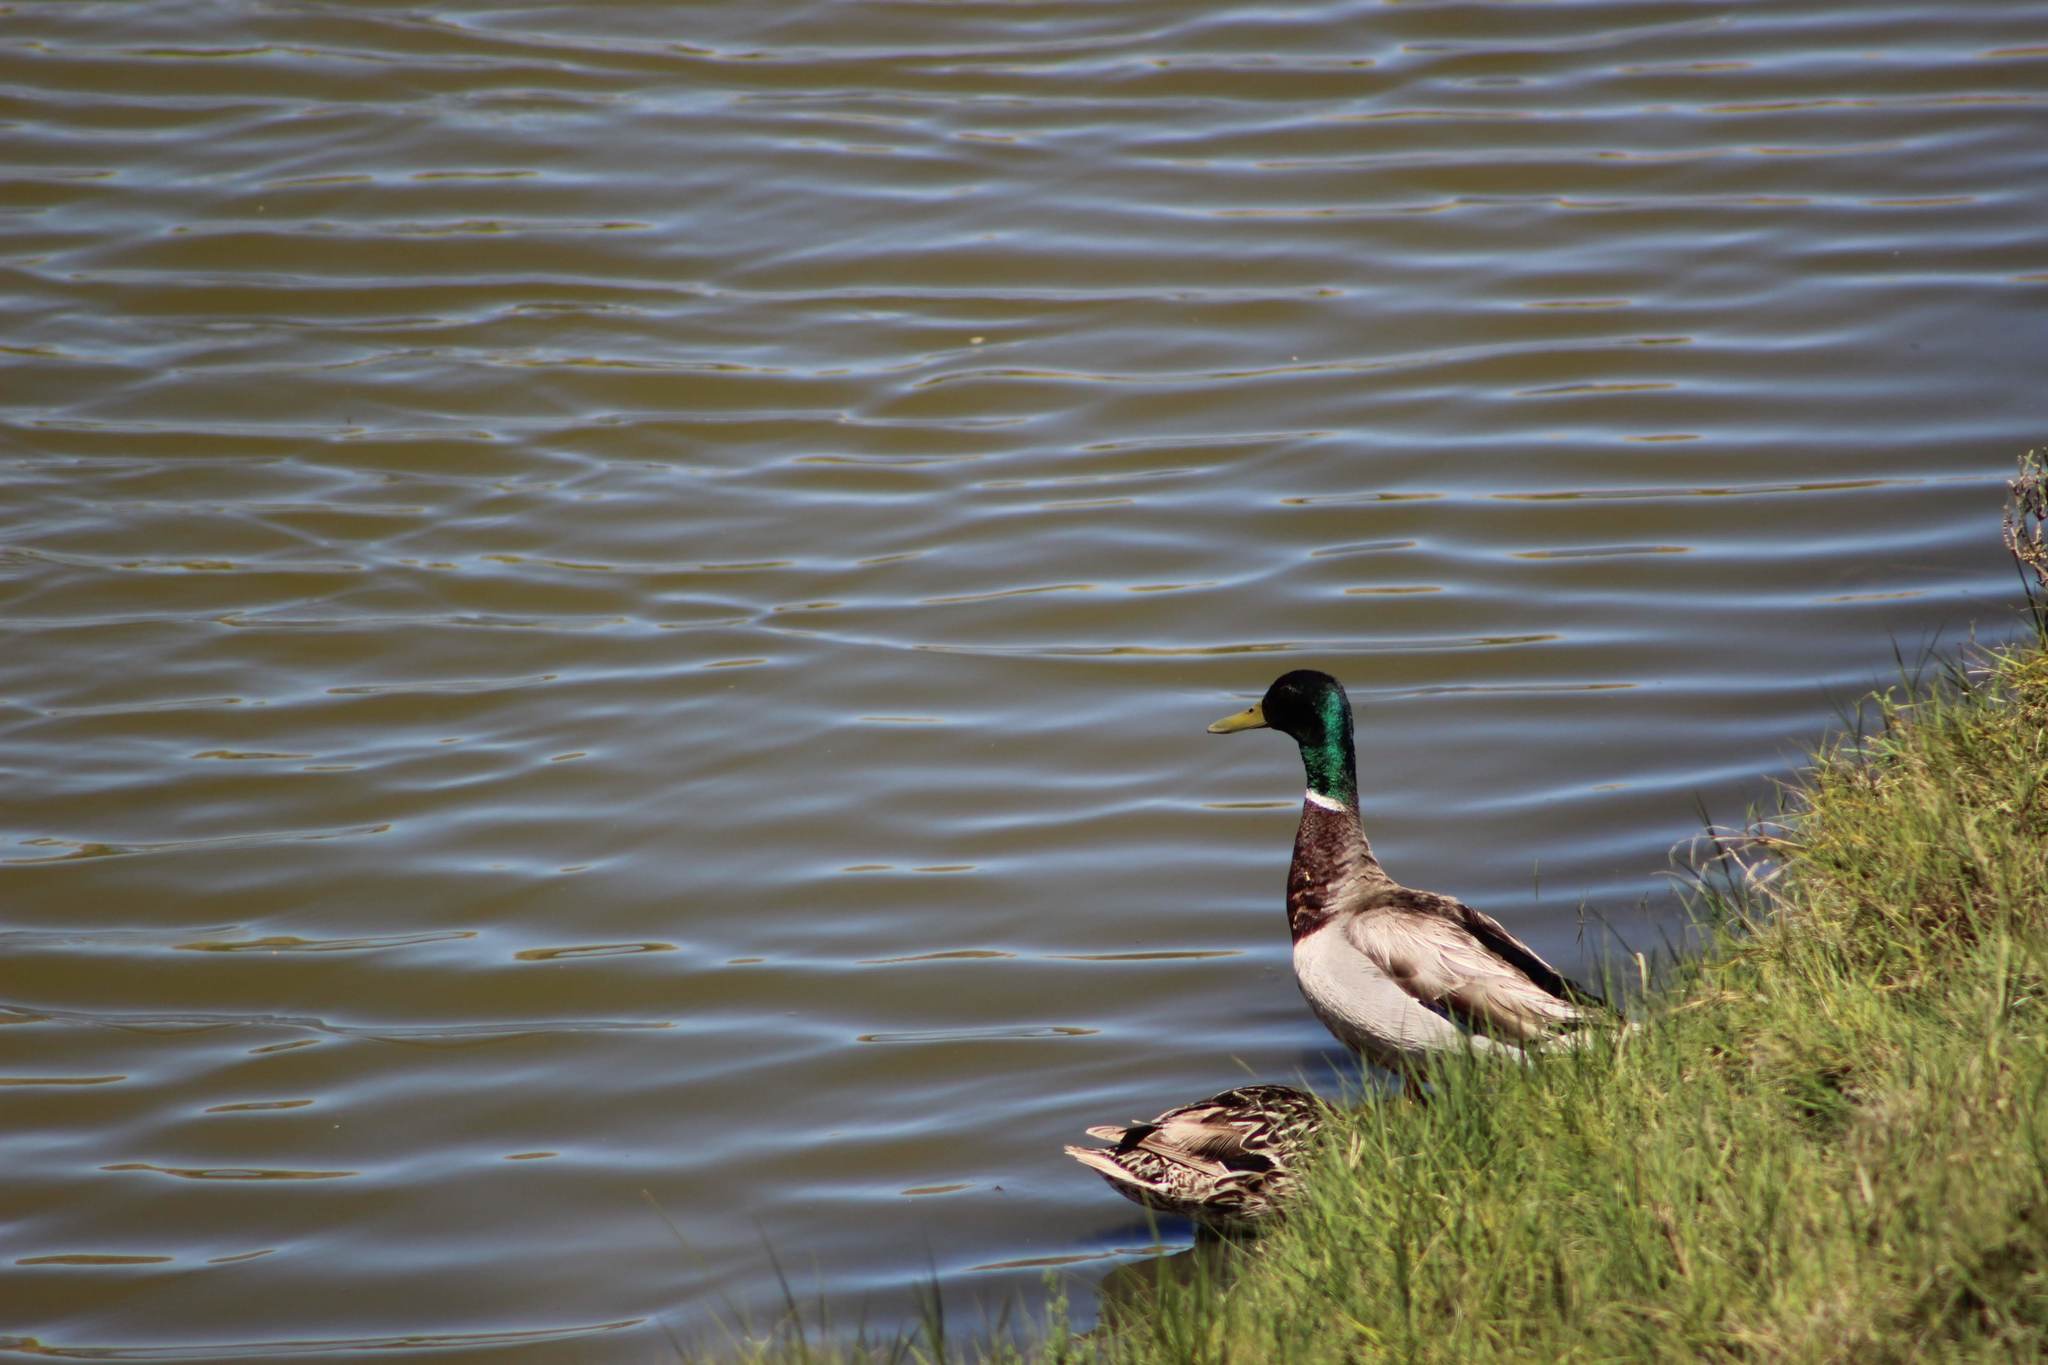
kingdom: Animalia
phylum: Chordata
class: Aves
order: Anseriformes
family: Anatidae
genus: Anas
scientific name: Anas platyrhynchos
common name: Mallard
